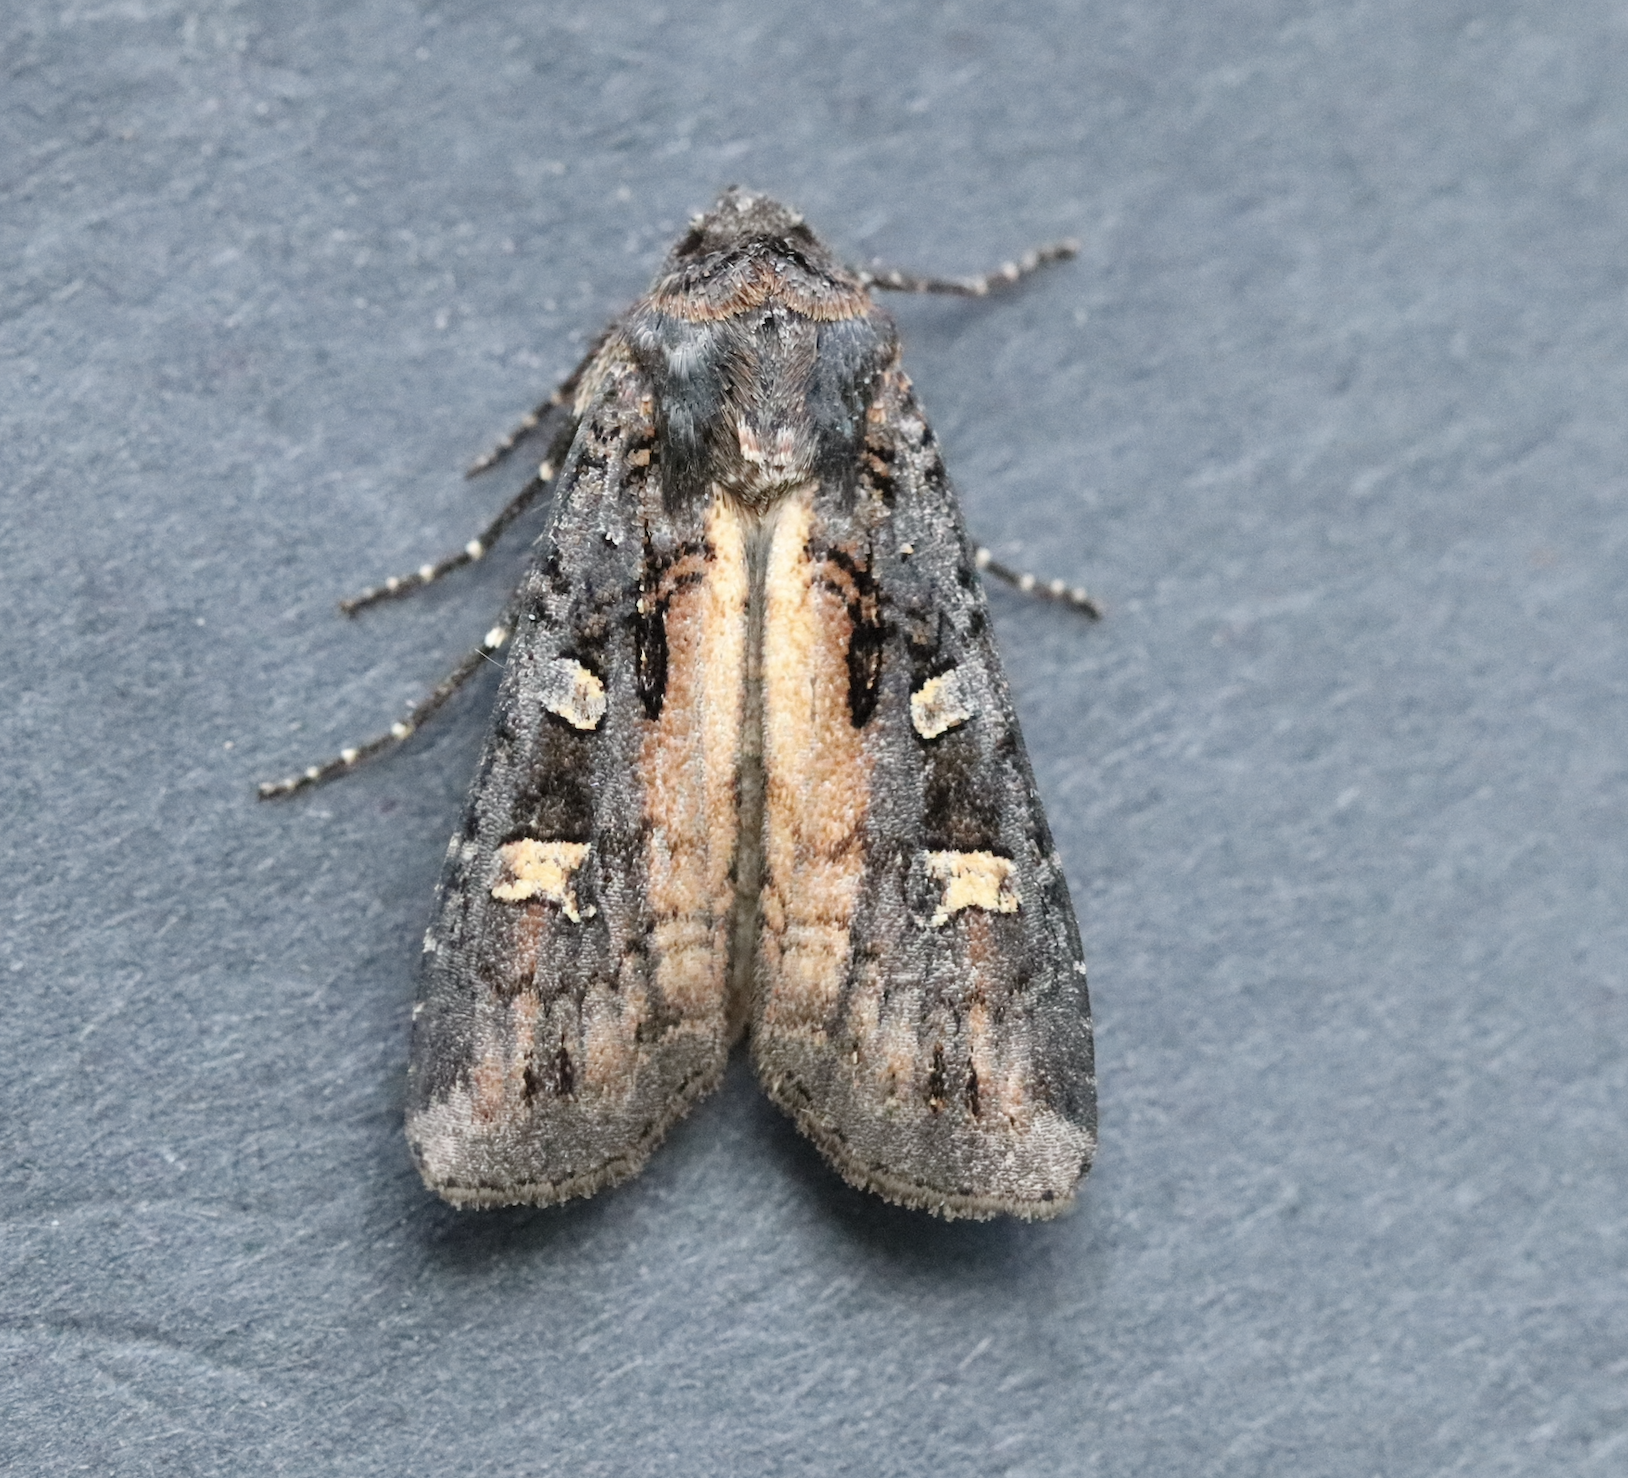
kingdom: Animalia
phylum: Arthropoda
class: Insecta
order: Lepidoptera
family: Noctuidae
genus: Actebia
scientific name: Actebia fennica
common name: Eversmann's rustic
